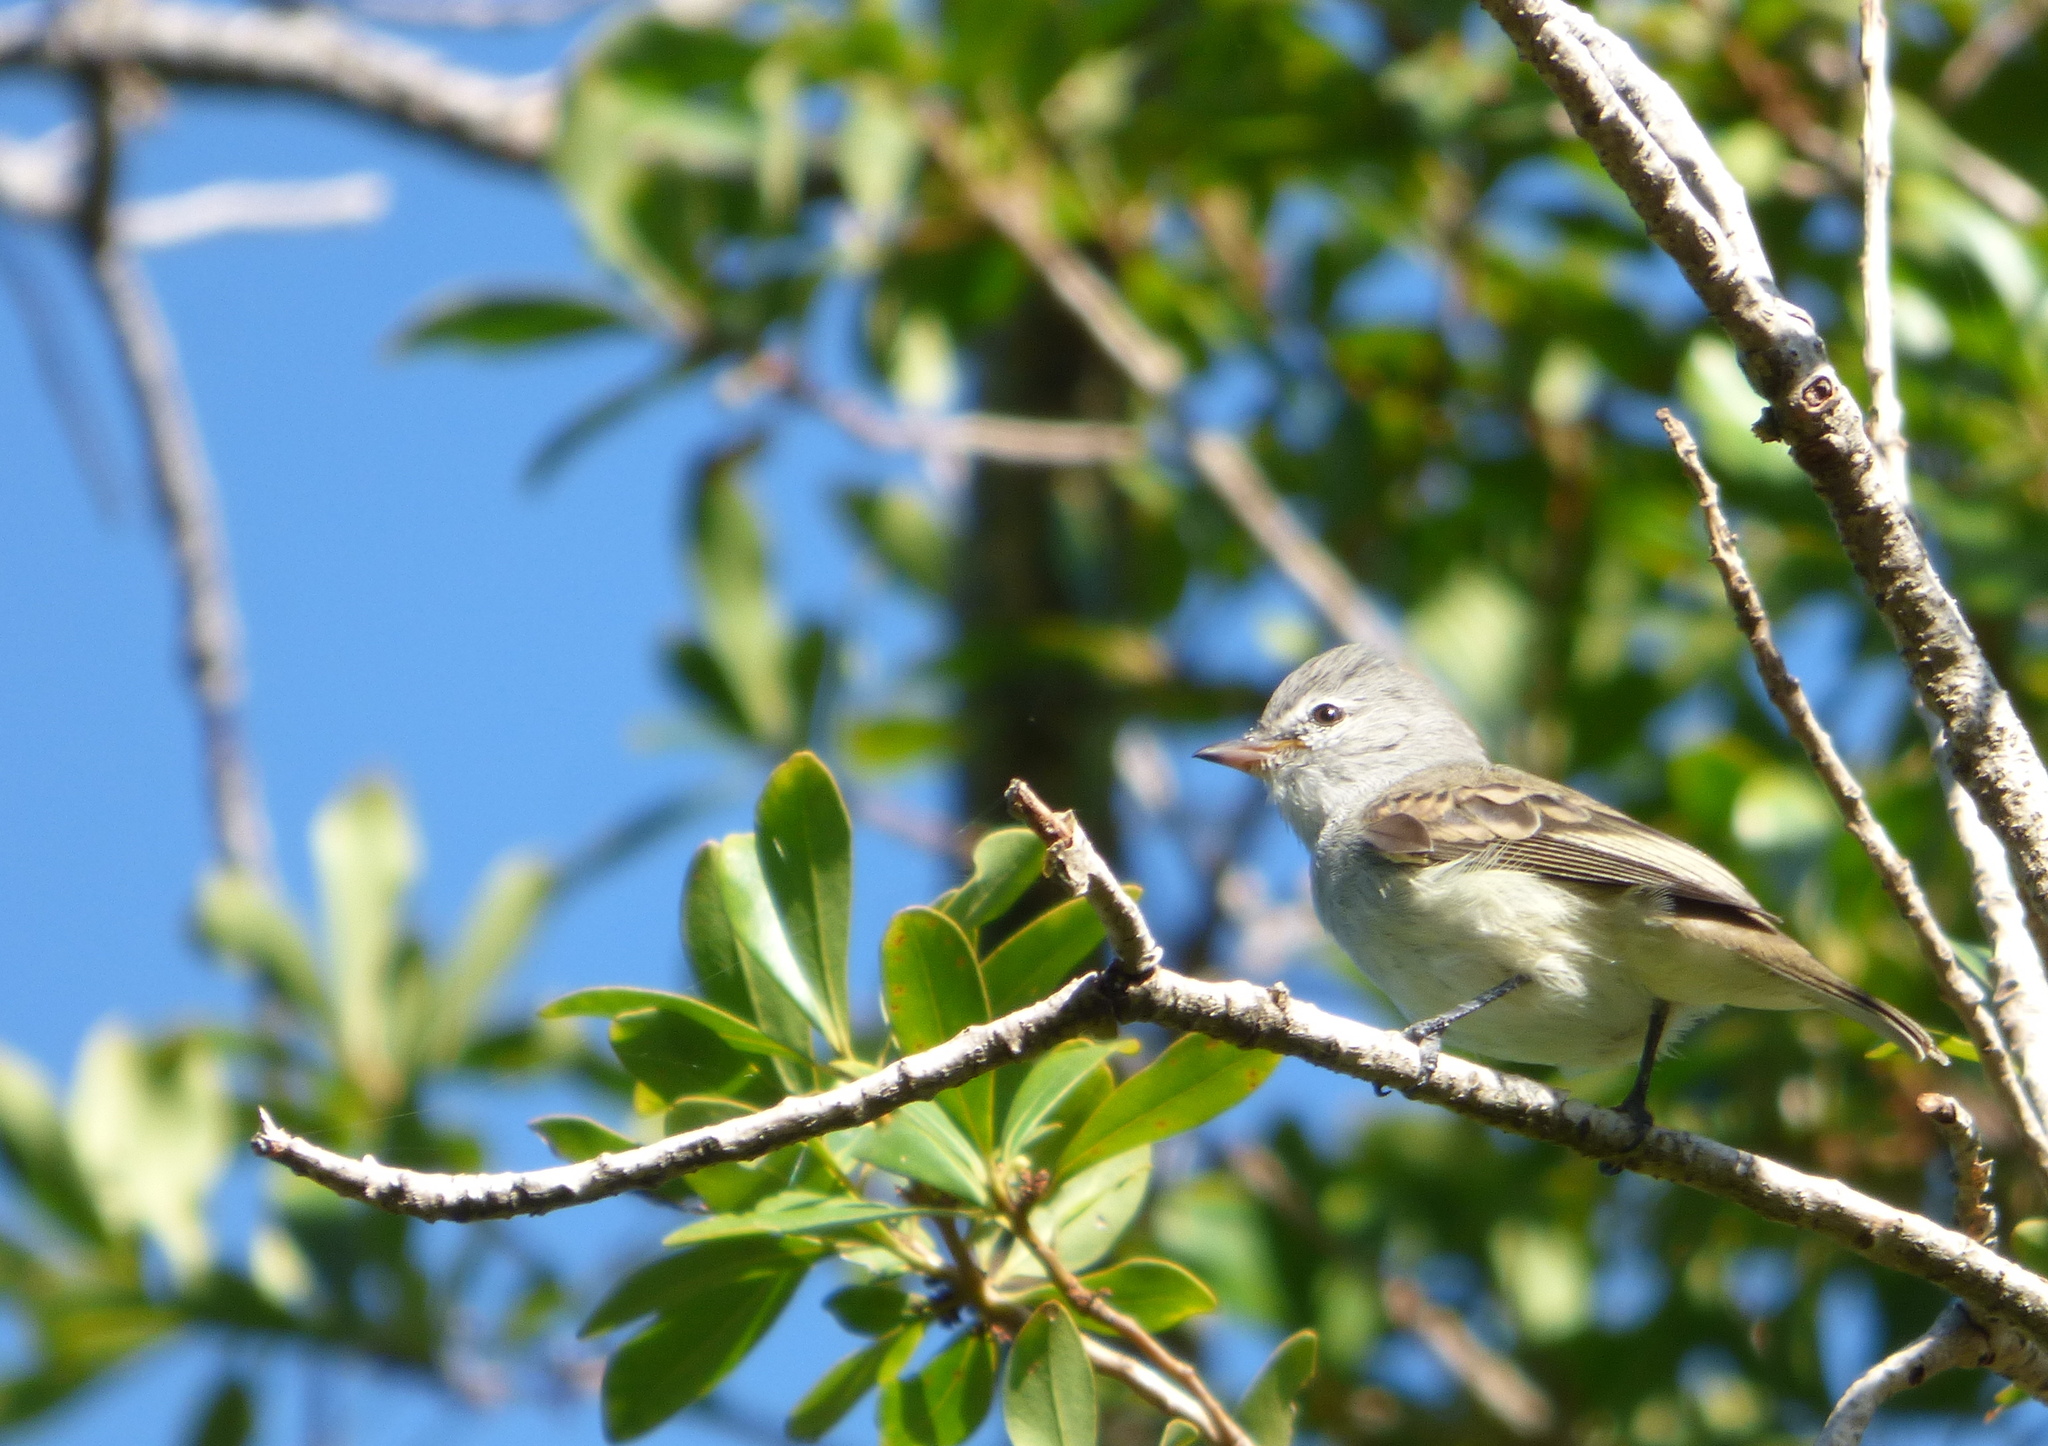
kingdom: Animalia
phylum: Chordata
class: Aves
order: Passeriformes
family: Tyrannidae
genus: Camptostoma
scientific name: Camptostoma obsoletum
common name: Southern beardless-tyrannulet
